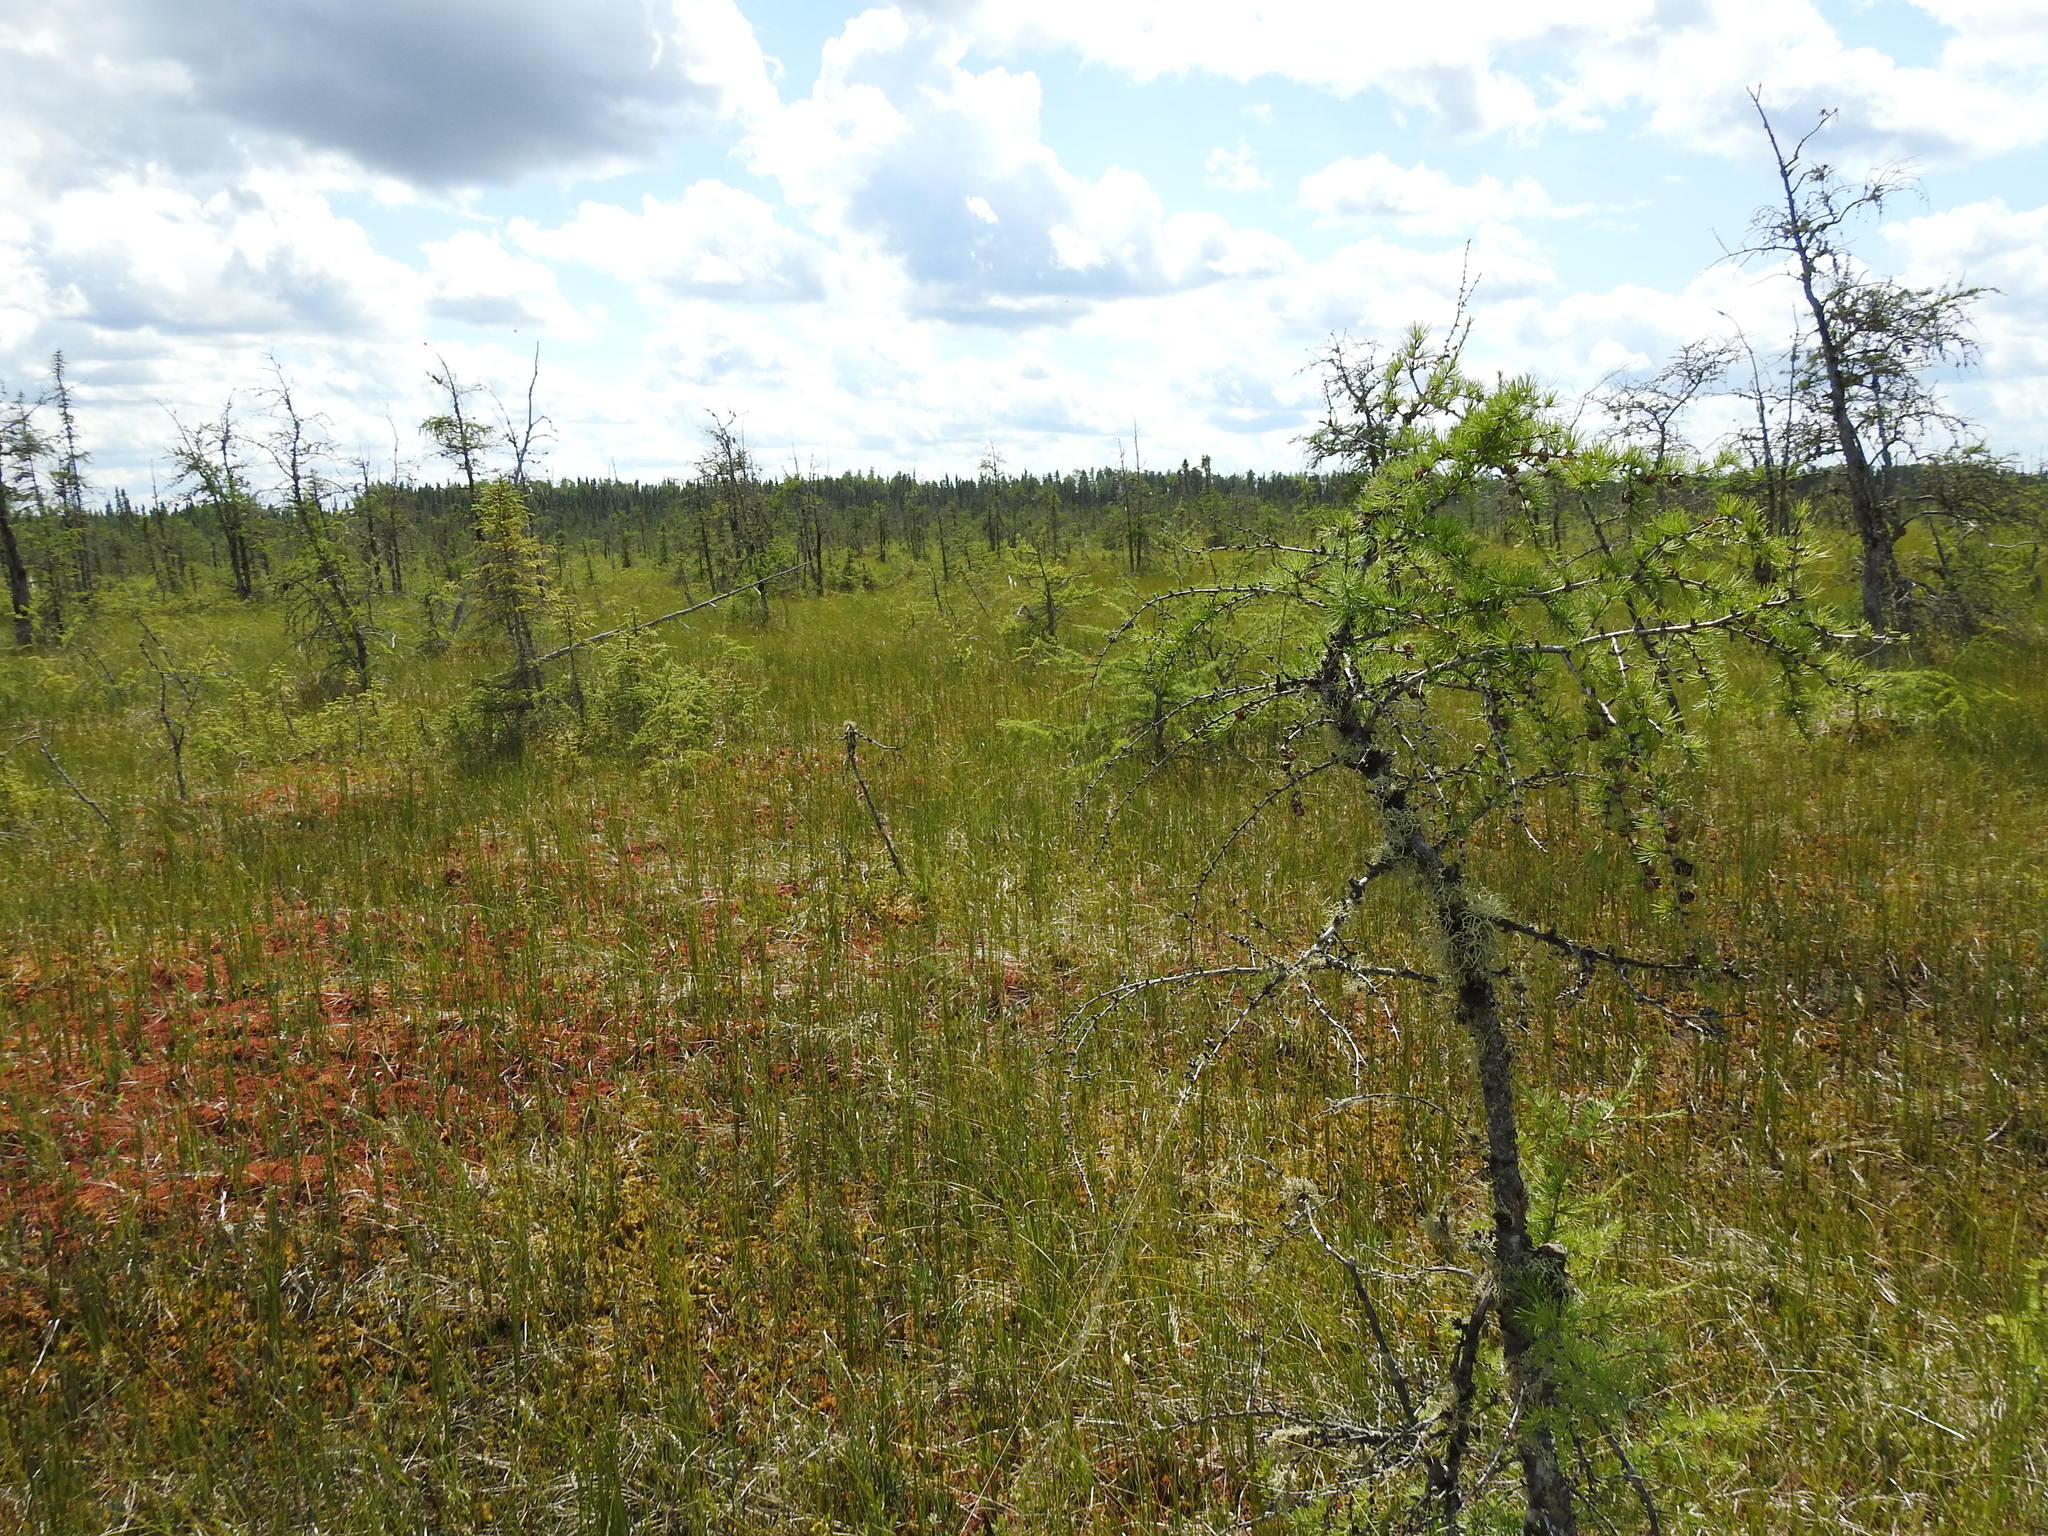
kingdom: Plantae
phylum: Tracheophyta
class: Pinopsida
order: Pinales
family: Pinaceae
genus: Larix
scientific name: Larix laricina
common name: American larch
